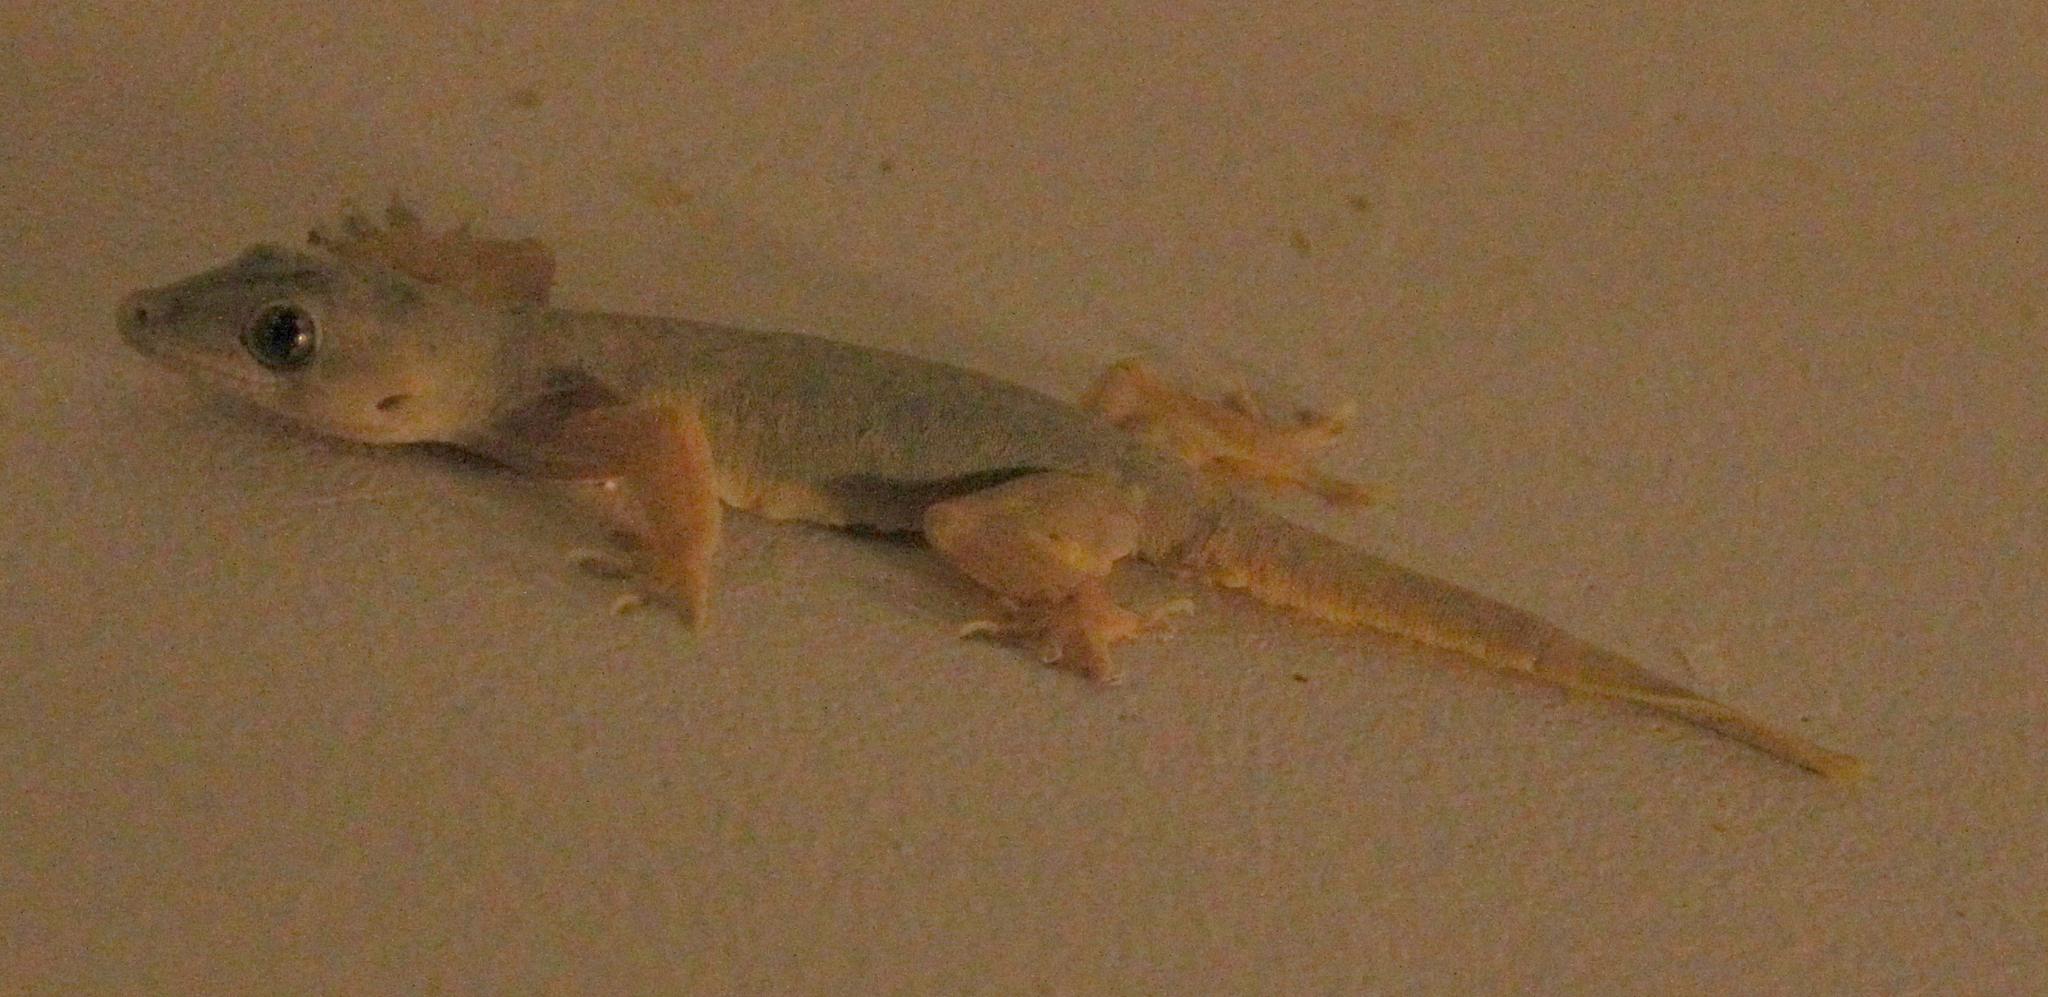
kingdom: Animalia
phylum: Chordata
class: Squamata
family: Gekkonidae
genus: Hemidactylus
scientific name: Hemidactylus platyurus
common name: Flat-tailed house gecko
